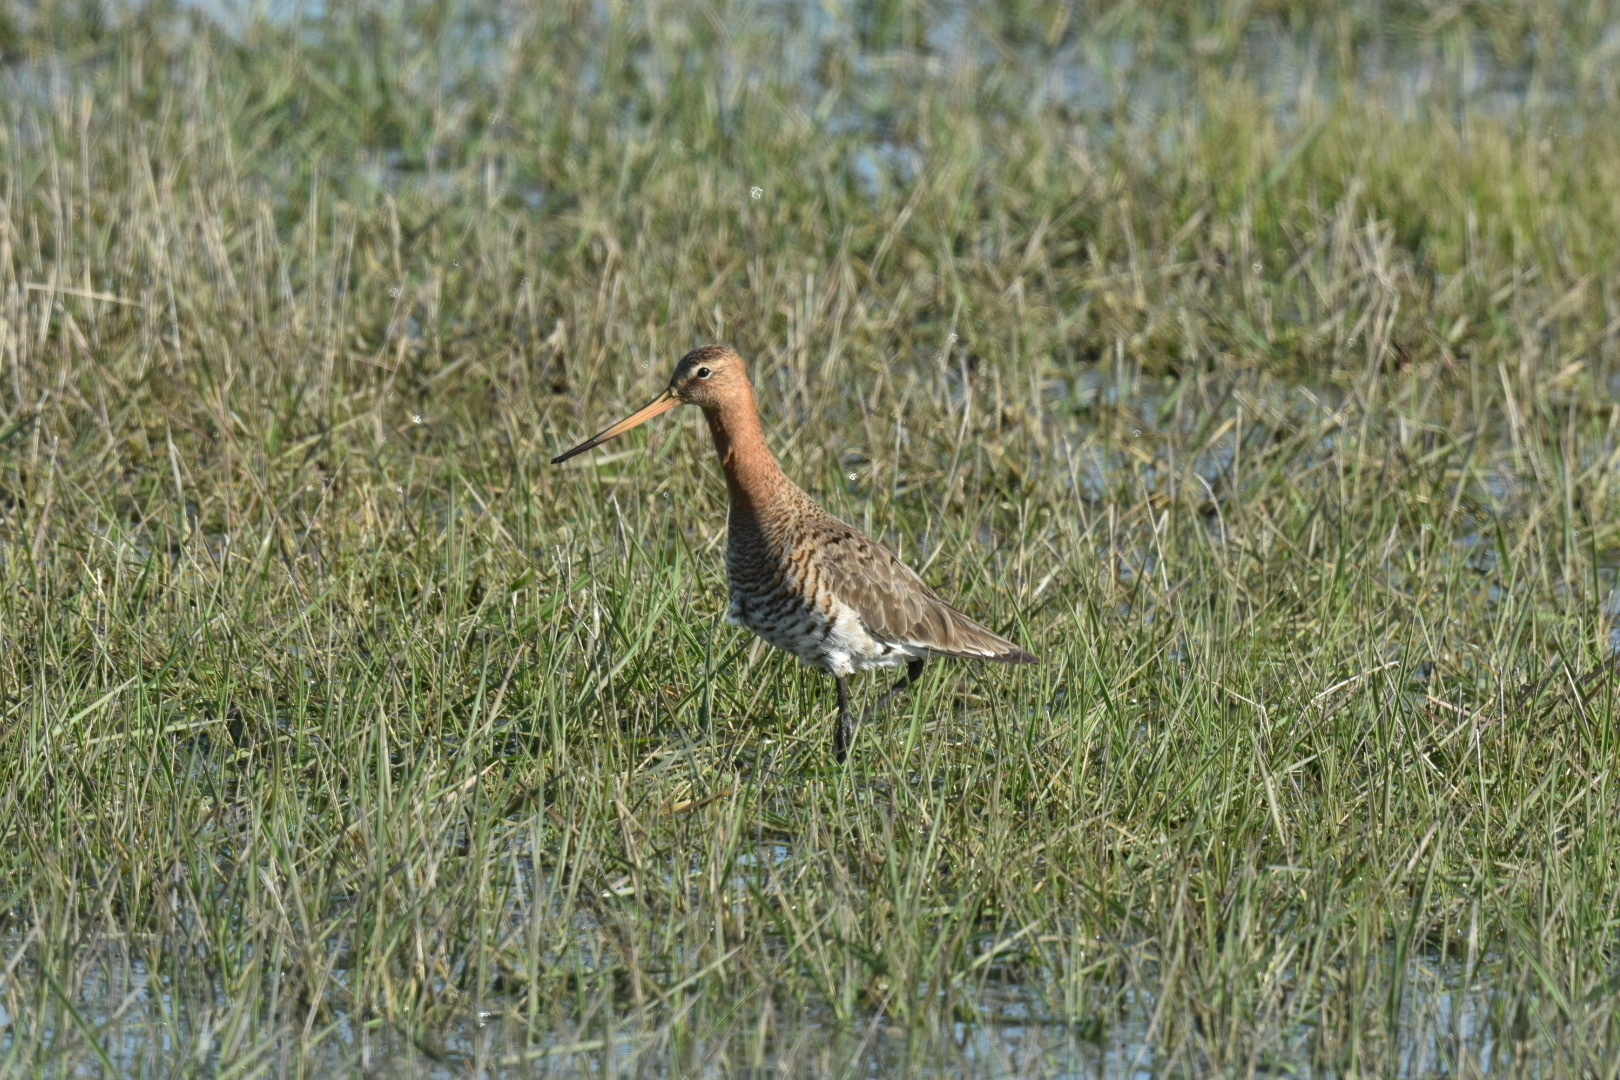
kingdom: Animalia
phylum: Chordata
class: Aves
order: Charadriiformes
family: Scolopacidae
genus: Limosa
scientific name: Limosa limosa
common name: Black-tailed godwit
